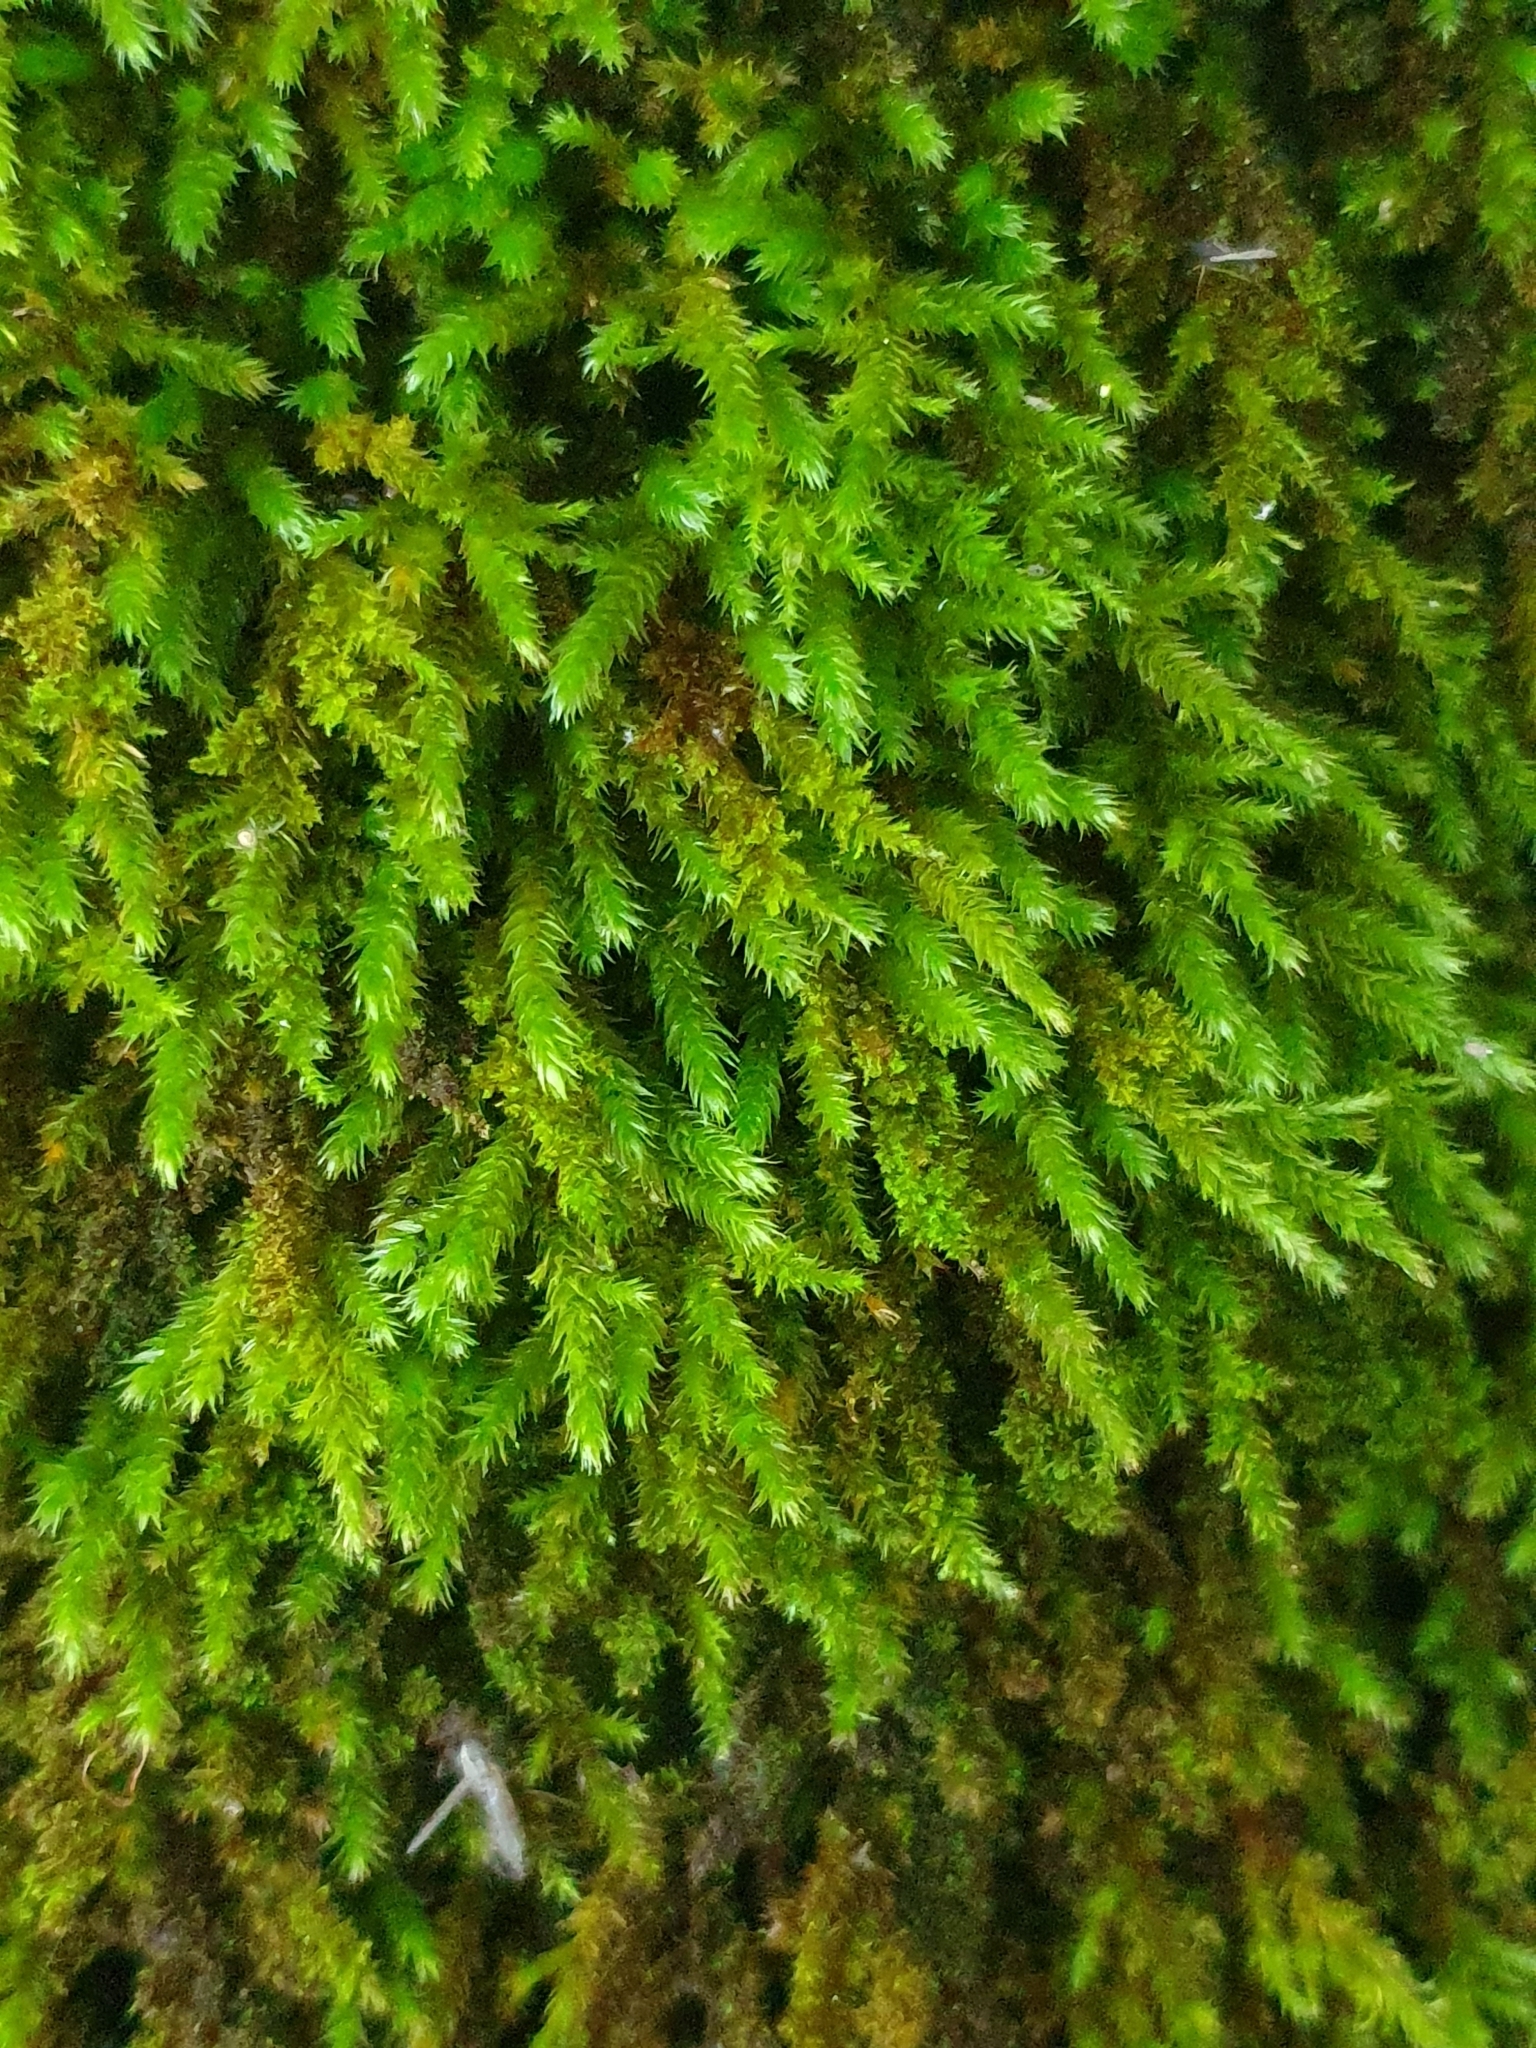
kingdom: Plantae
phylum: Bryophyta
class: Bryopsida
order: Hypnales
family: Leucodontaceae
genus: Leucodon
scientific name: Leucodon sciuroides
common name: Squirrel-tail moss
